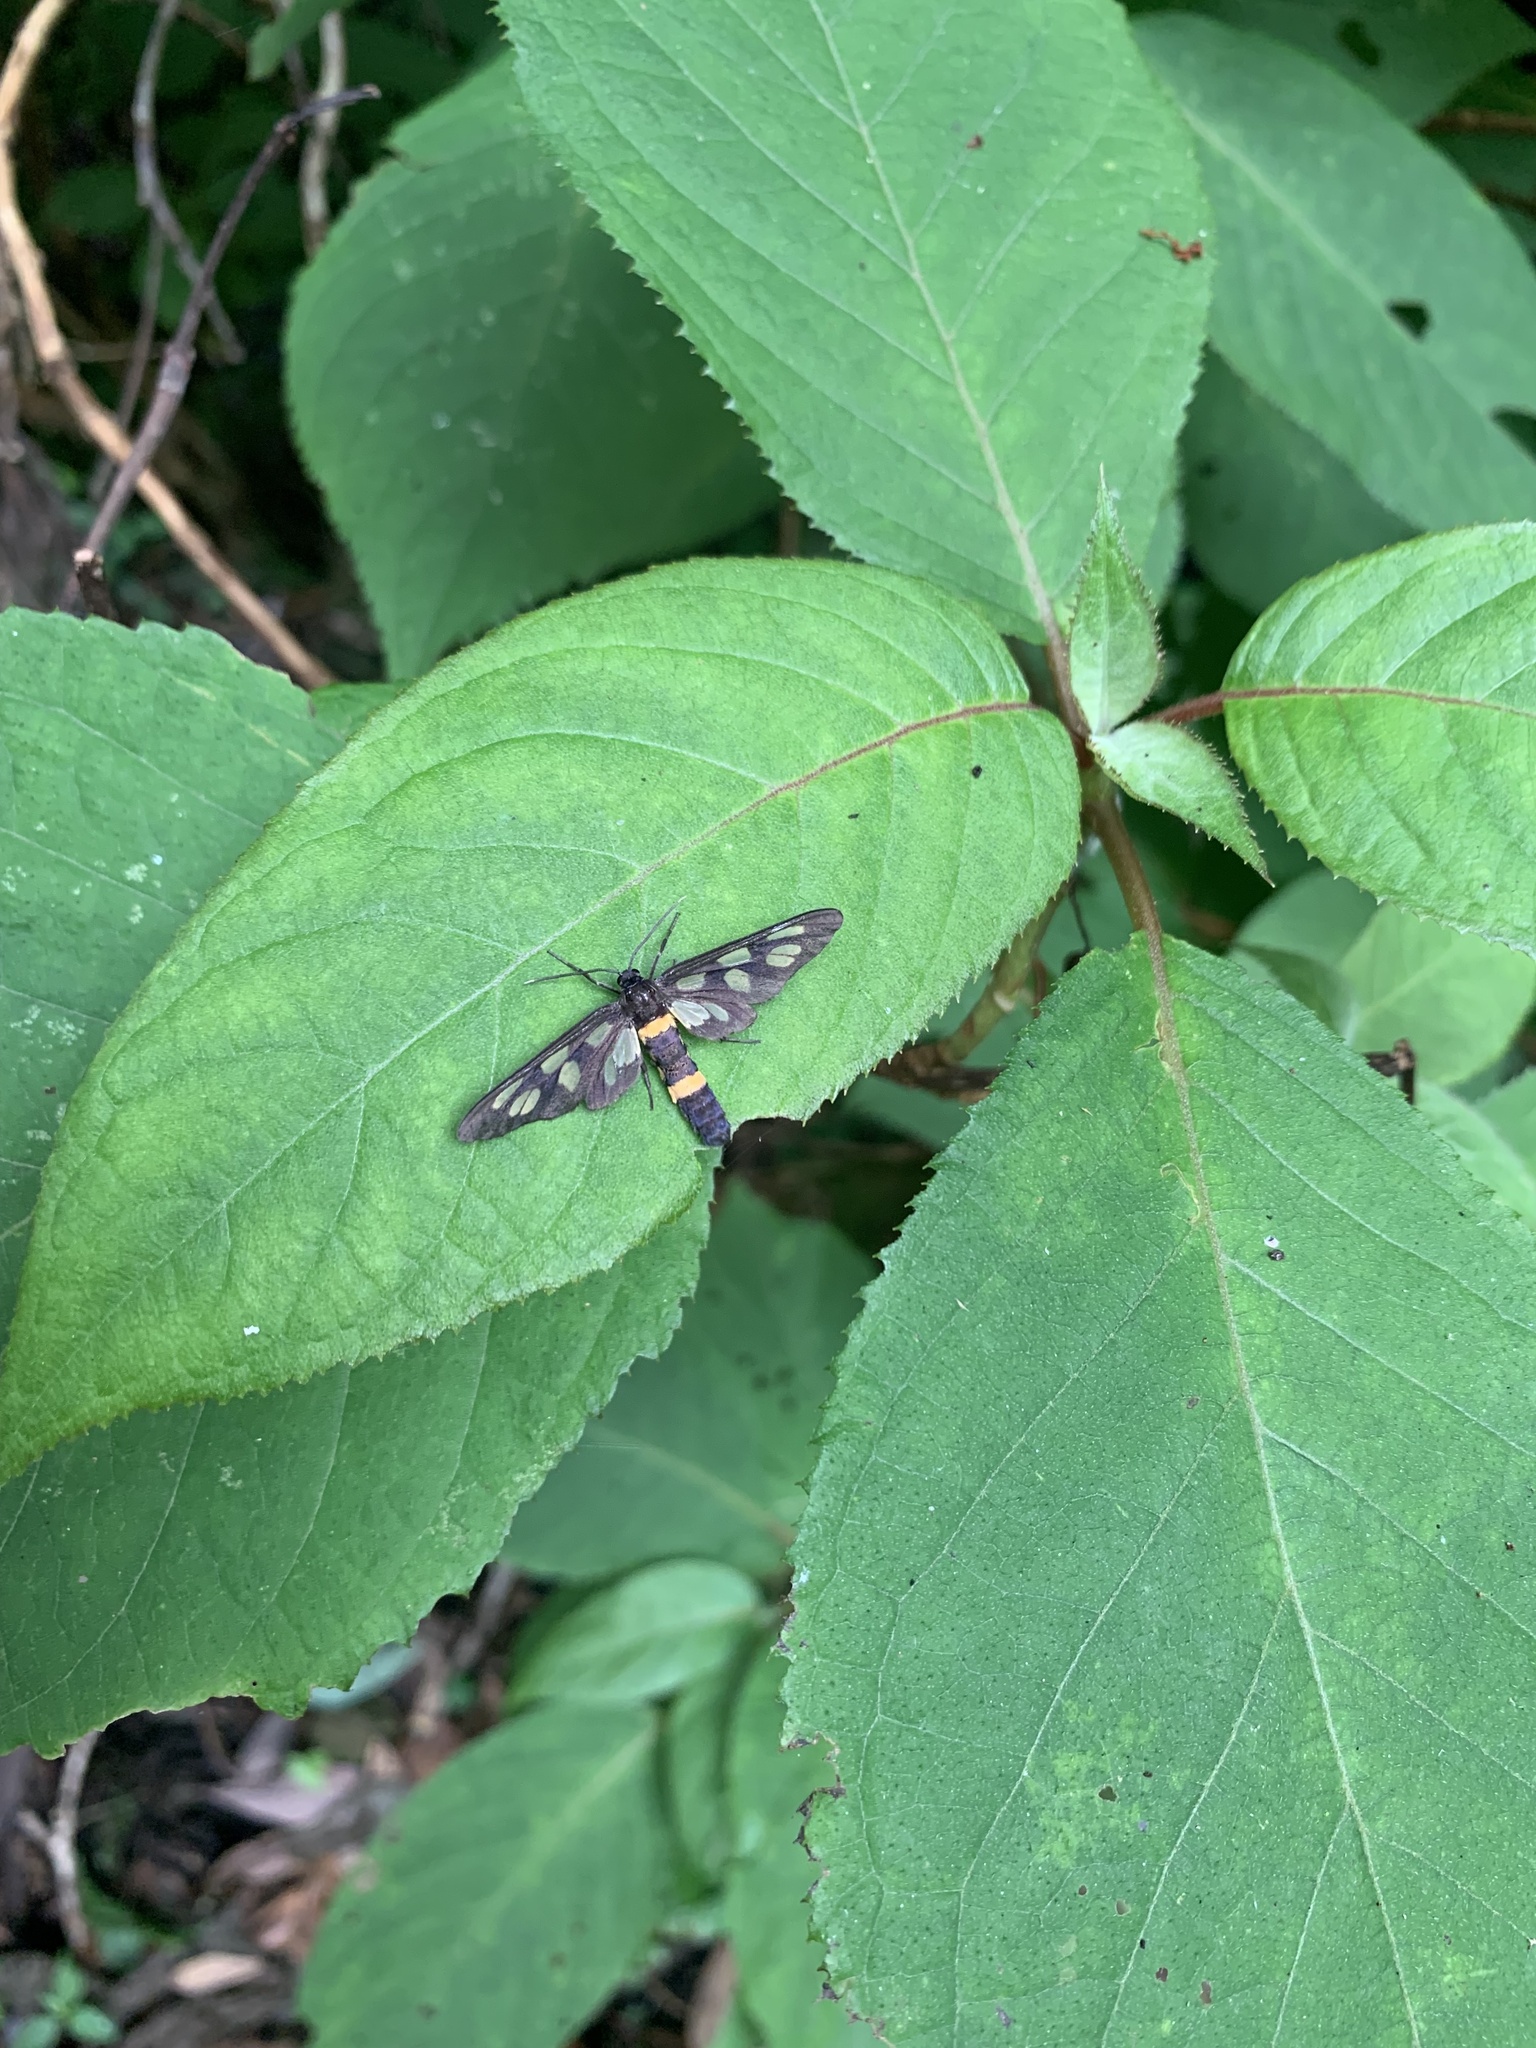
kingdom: Animalia
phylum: Arthropoda
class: Insecta
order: Lepidoptera
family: Erebidae
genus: Amata
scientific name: Amata fortunei
